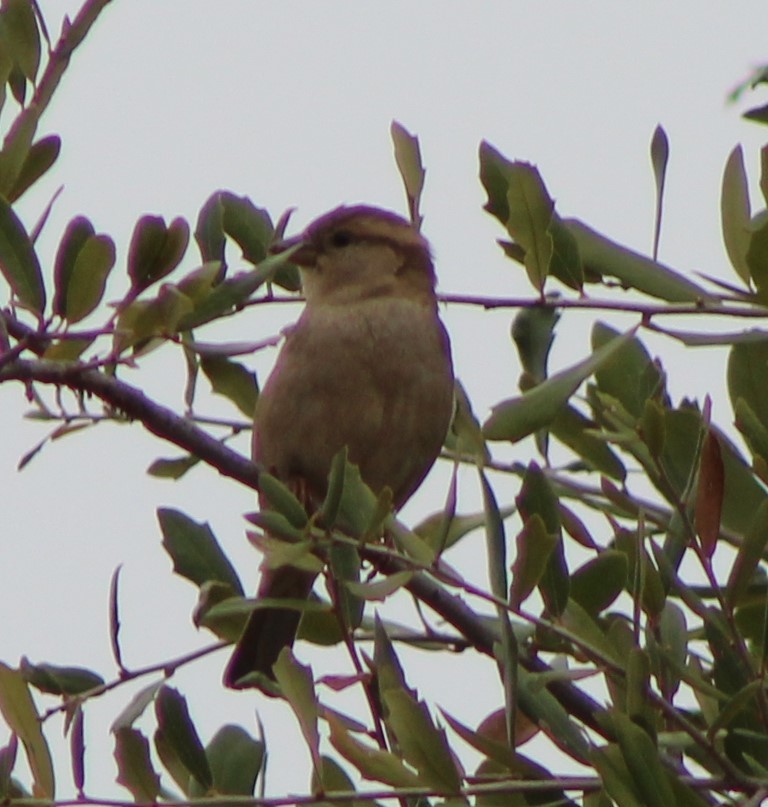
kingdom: Animalia
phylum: Chordata
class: Aves
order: Passeriformes
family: Passeridae
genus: Passer
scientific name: Passer domesticus
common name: House sparrow
